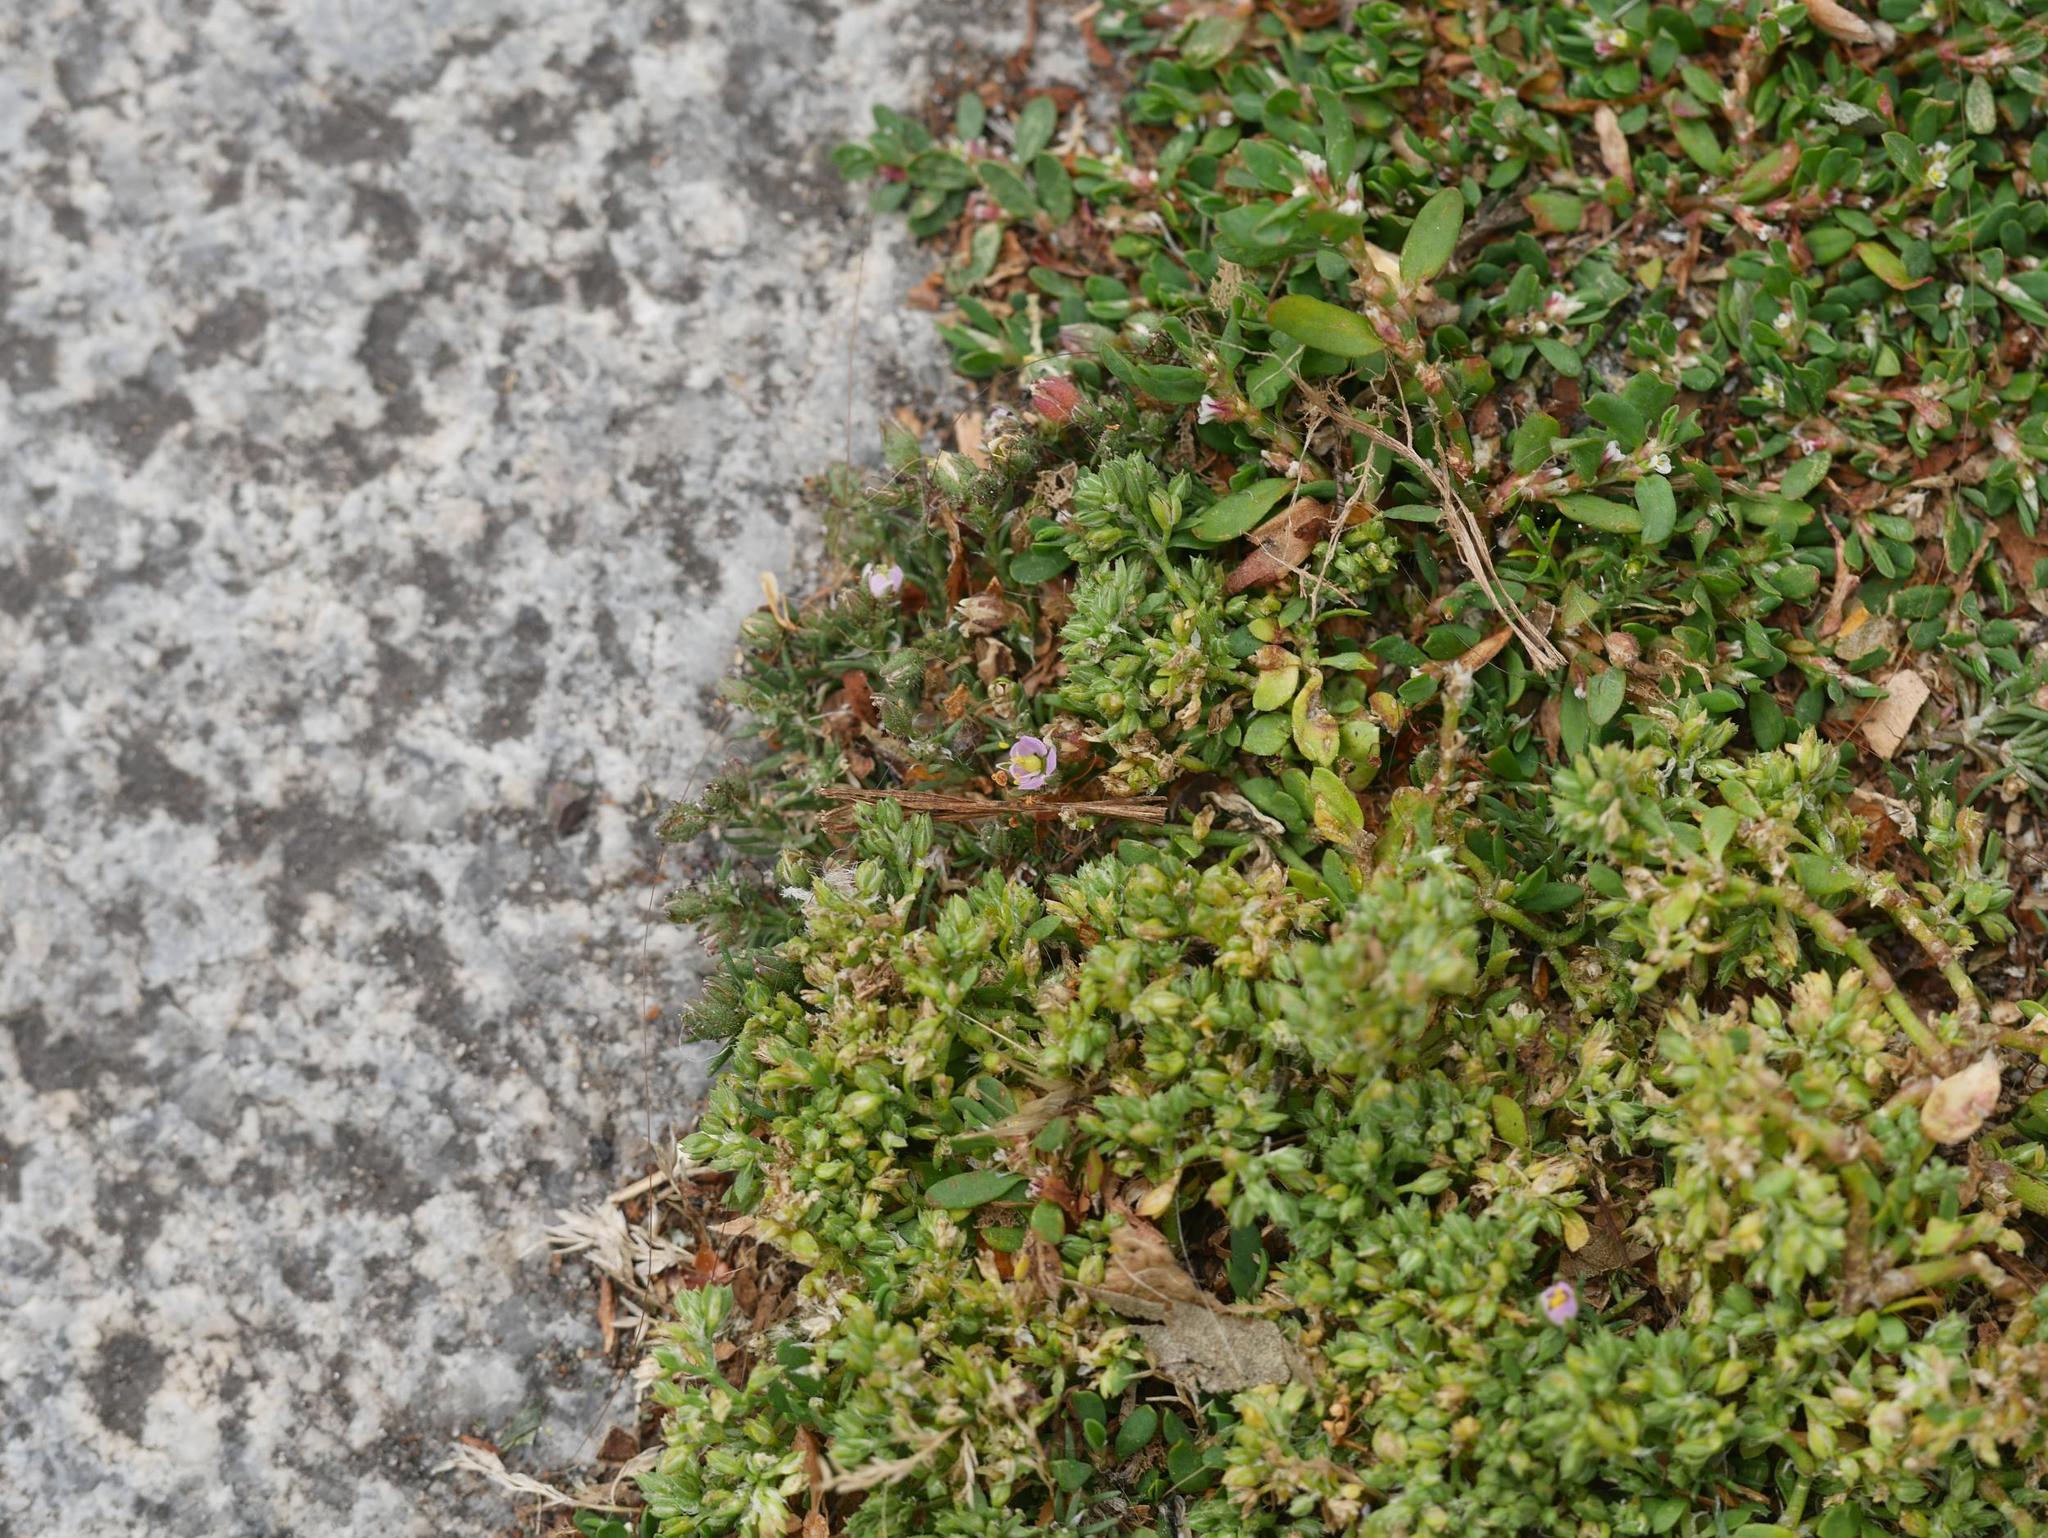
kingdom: Plantae
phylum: Tracheophyta
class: Magnoliopsida
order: Caryophyllales
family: Caryophyllaceae
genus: Spergularia
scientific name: Spergularia rubra
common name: Red sand-spurrey
